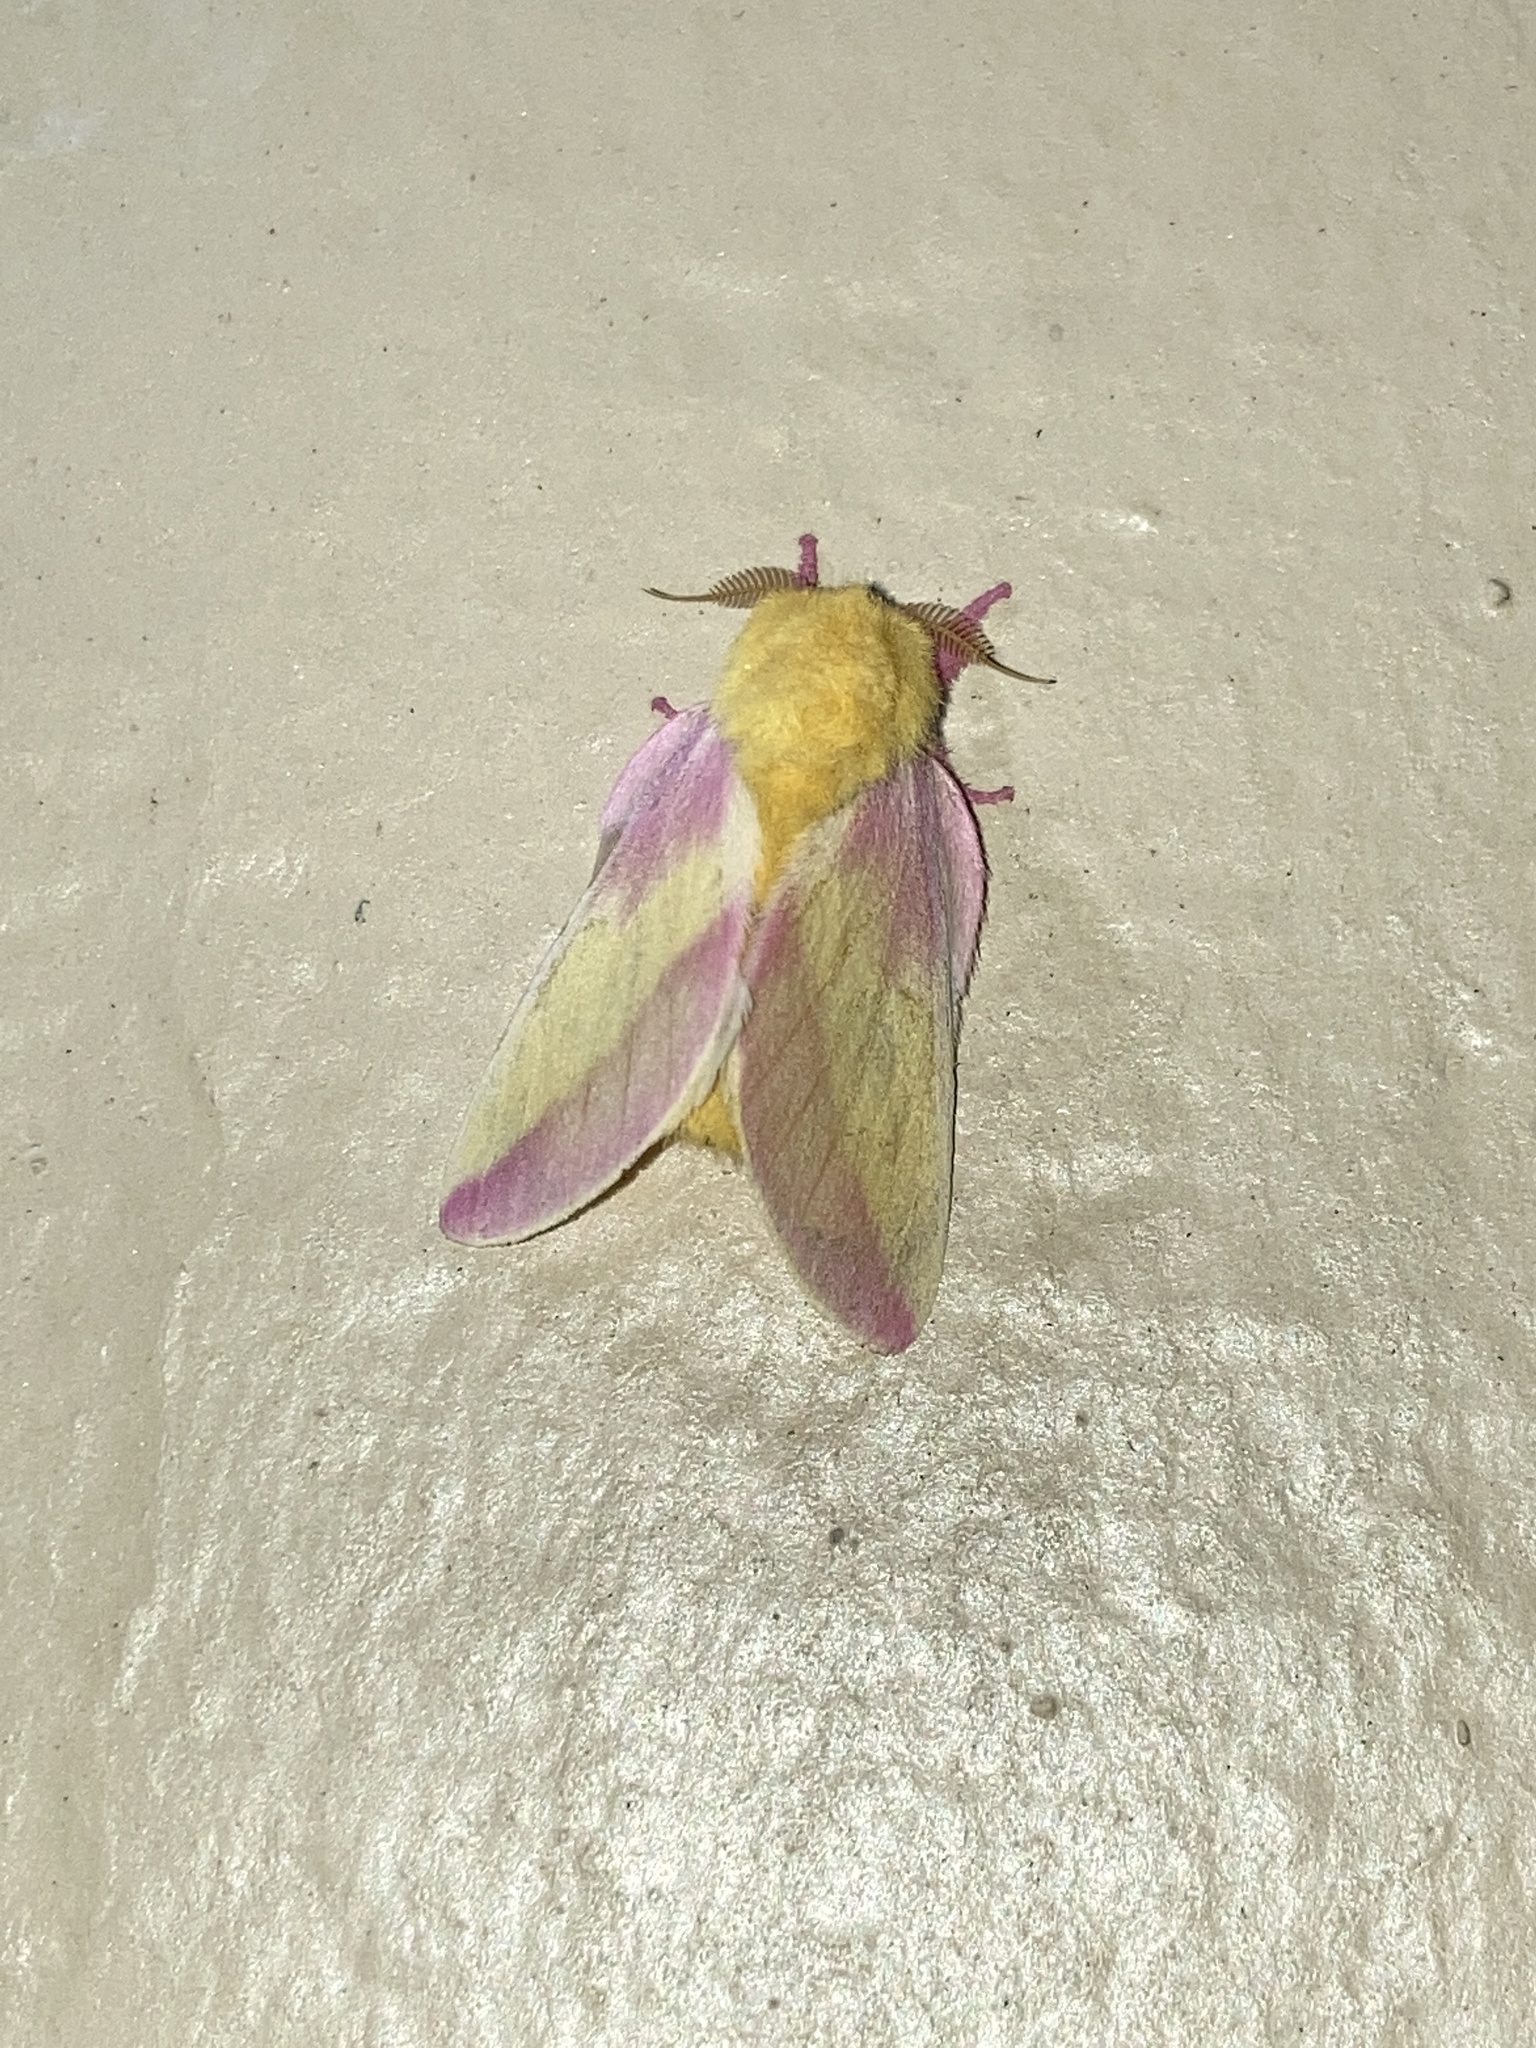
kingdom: Animalia
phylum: Arthropoda
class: Insecta
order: Lepidoptera
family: Saturniidae
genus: Dryocampa
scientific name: Dryocampa rubicunda
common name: Rosy maple moth
